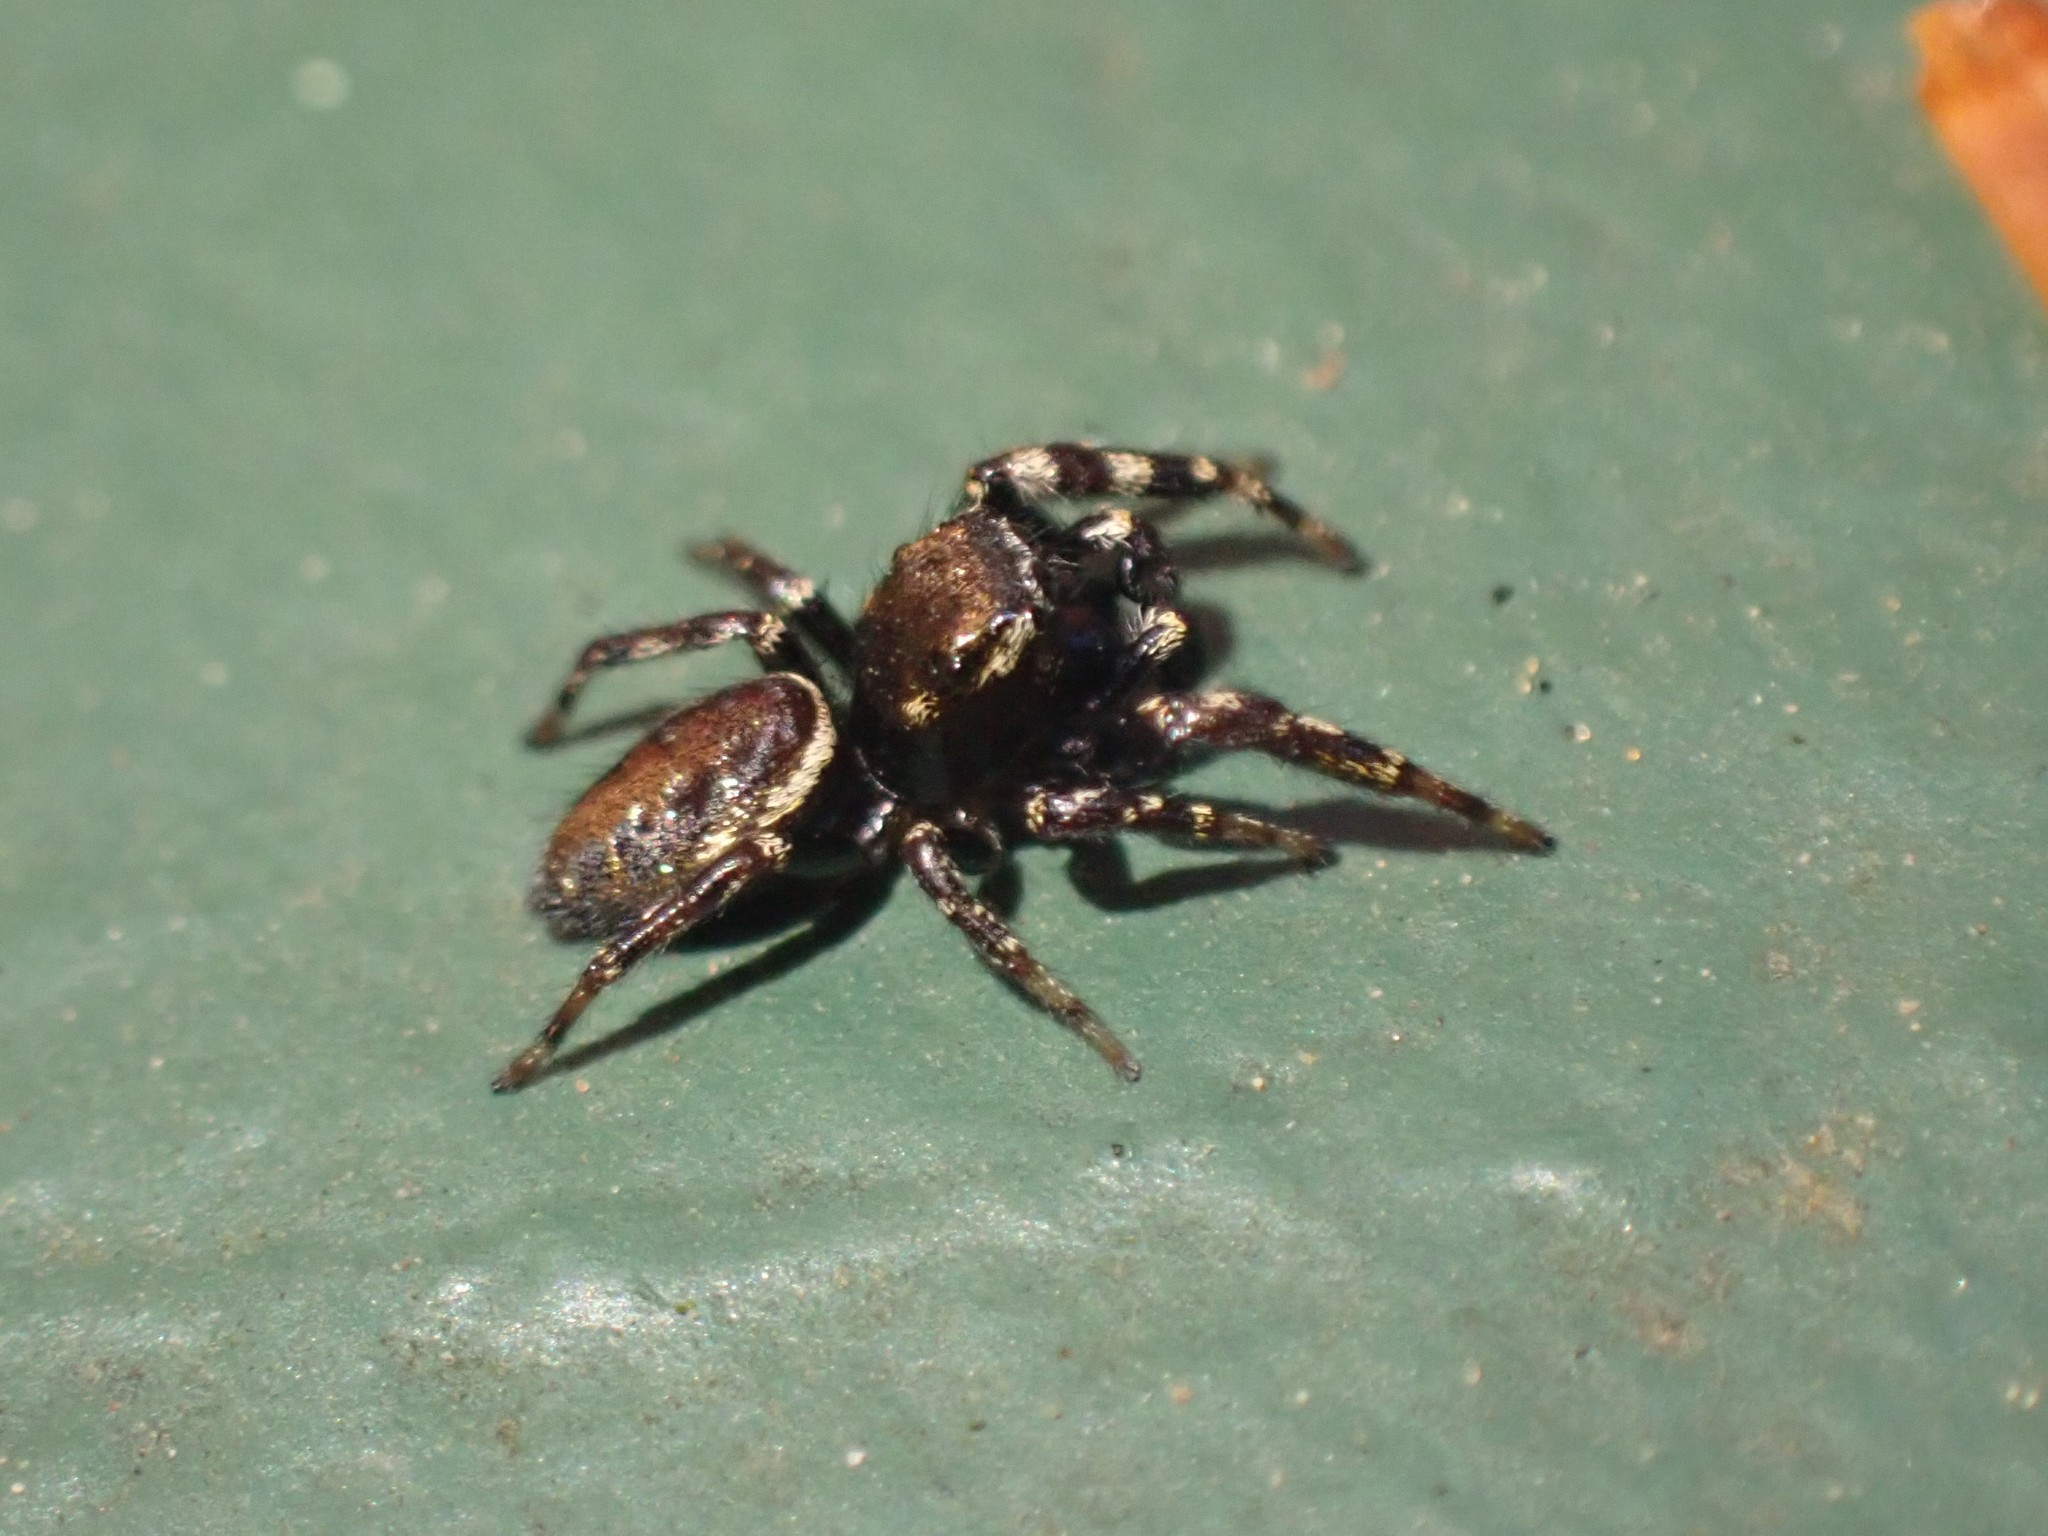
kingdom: Animalia
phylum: Arthropoda
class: Arachnida
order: Araneae
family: Salticidae
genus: Pelegrina
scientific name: Pelegrina aeneola
